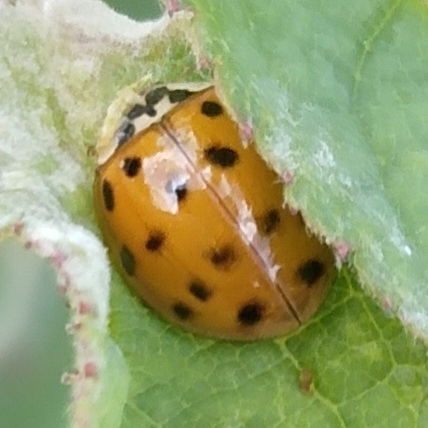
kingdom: Animalia
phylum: Arthropoda
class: Insecta
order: Coleoptera
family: Coccinellidae
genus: Harmonia
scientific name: Harmonia axyridis
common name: Harlequin ladybird
